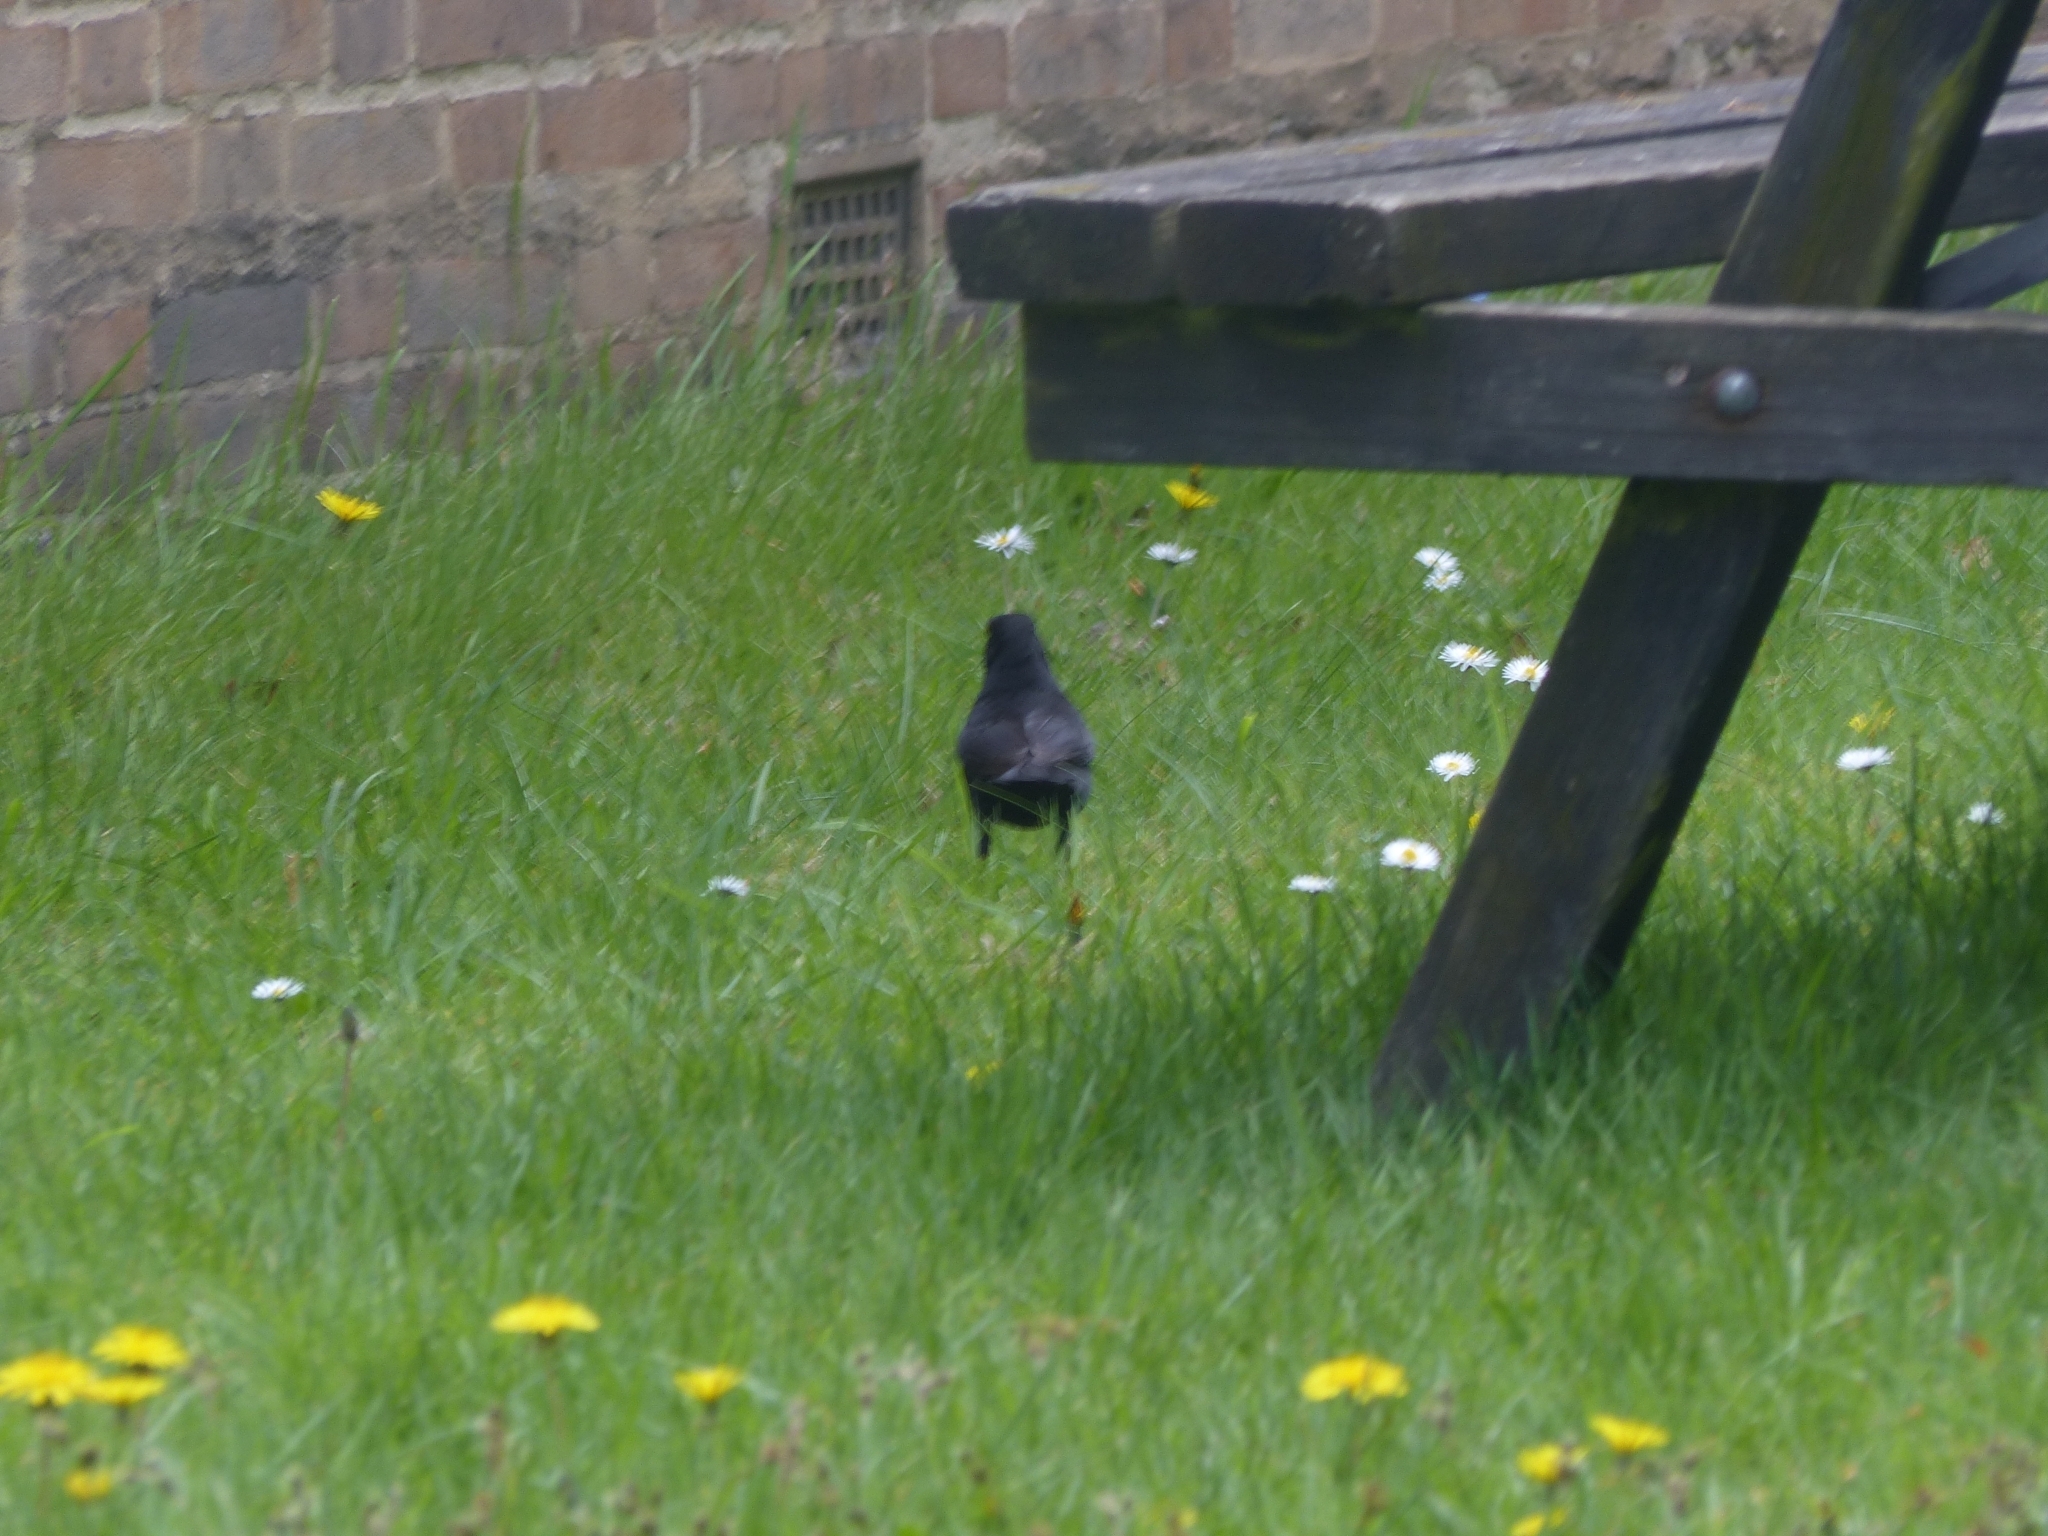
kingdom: Animalia
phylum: Chordata
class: Aves
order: Passeriformes
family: Turdidae
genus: Turdus
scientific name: Turdus merula
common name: Common blackbird
